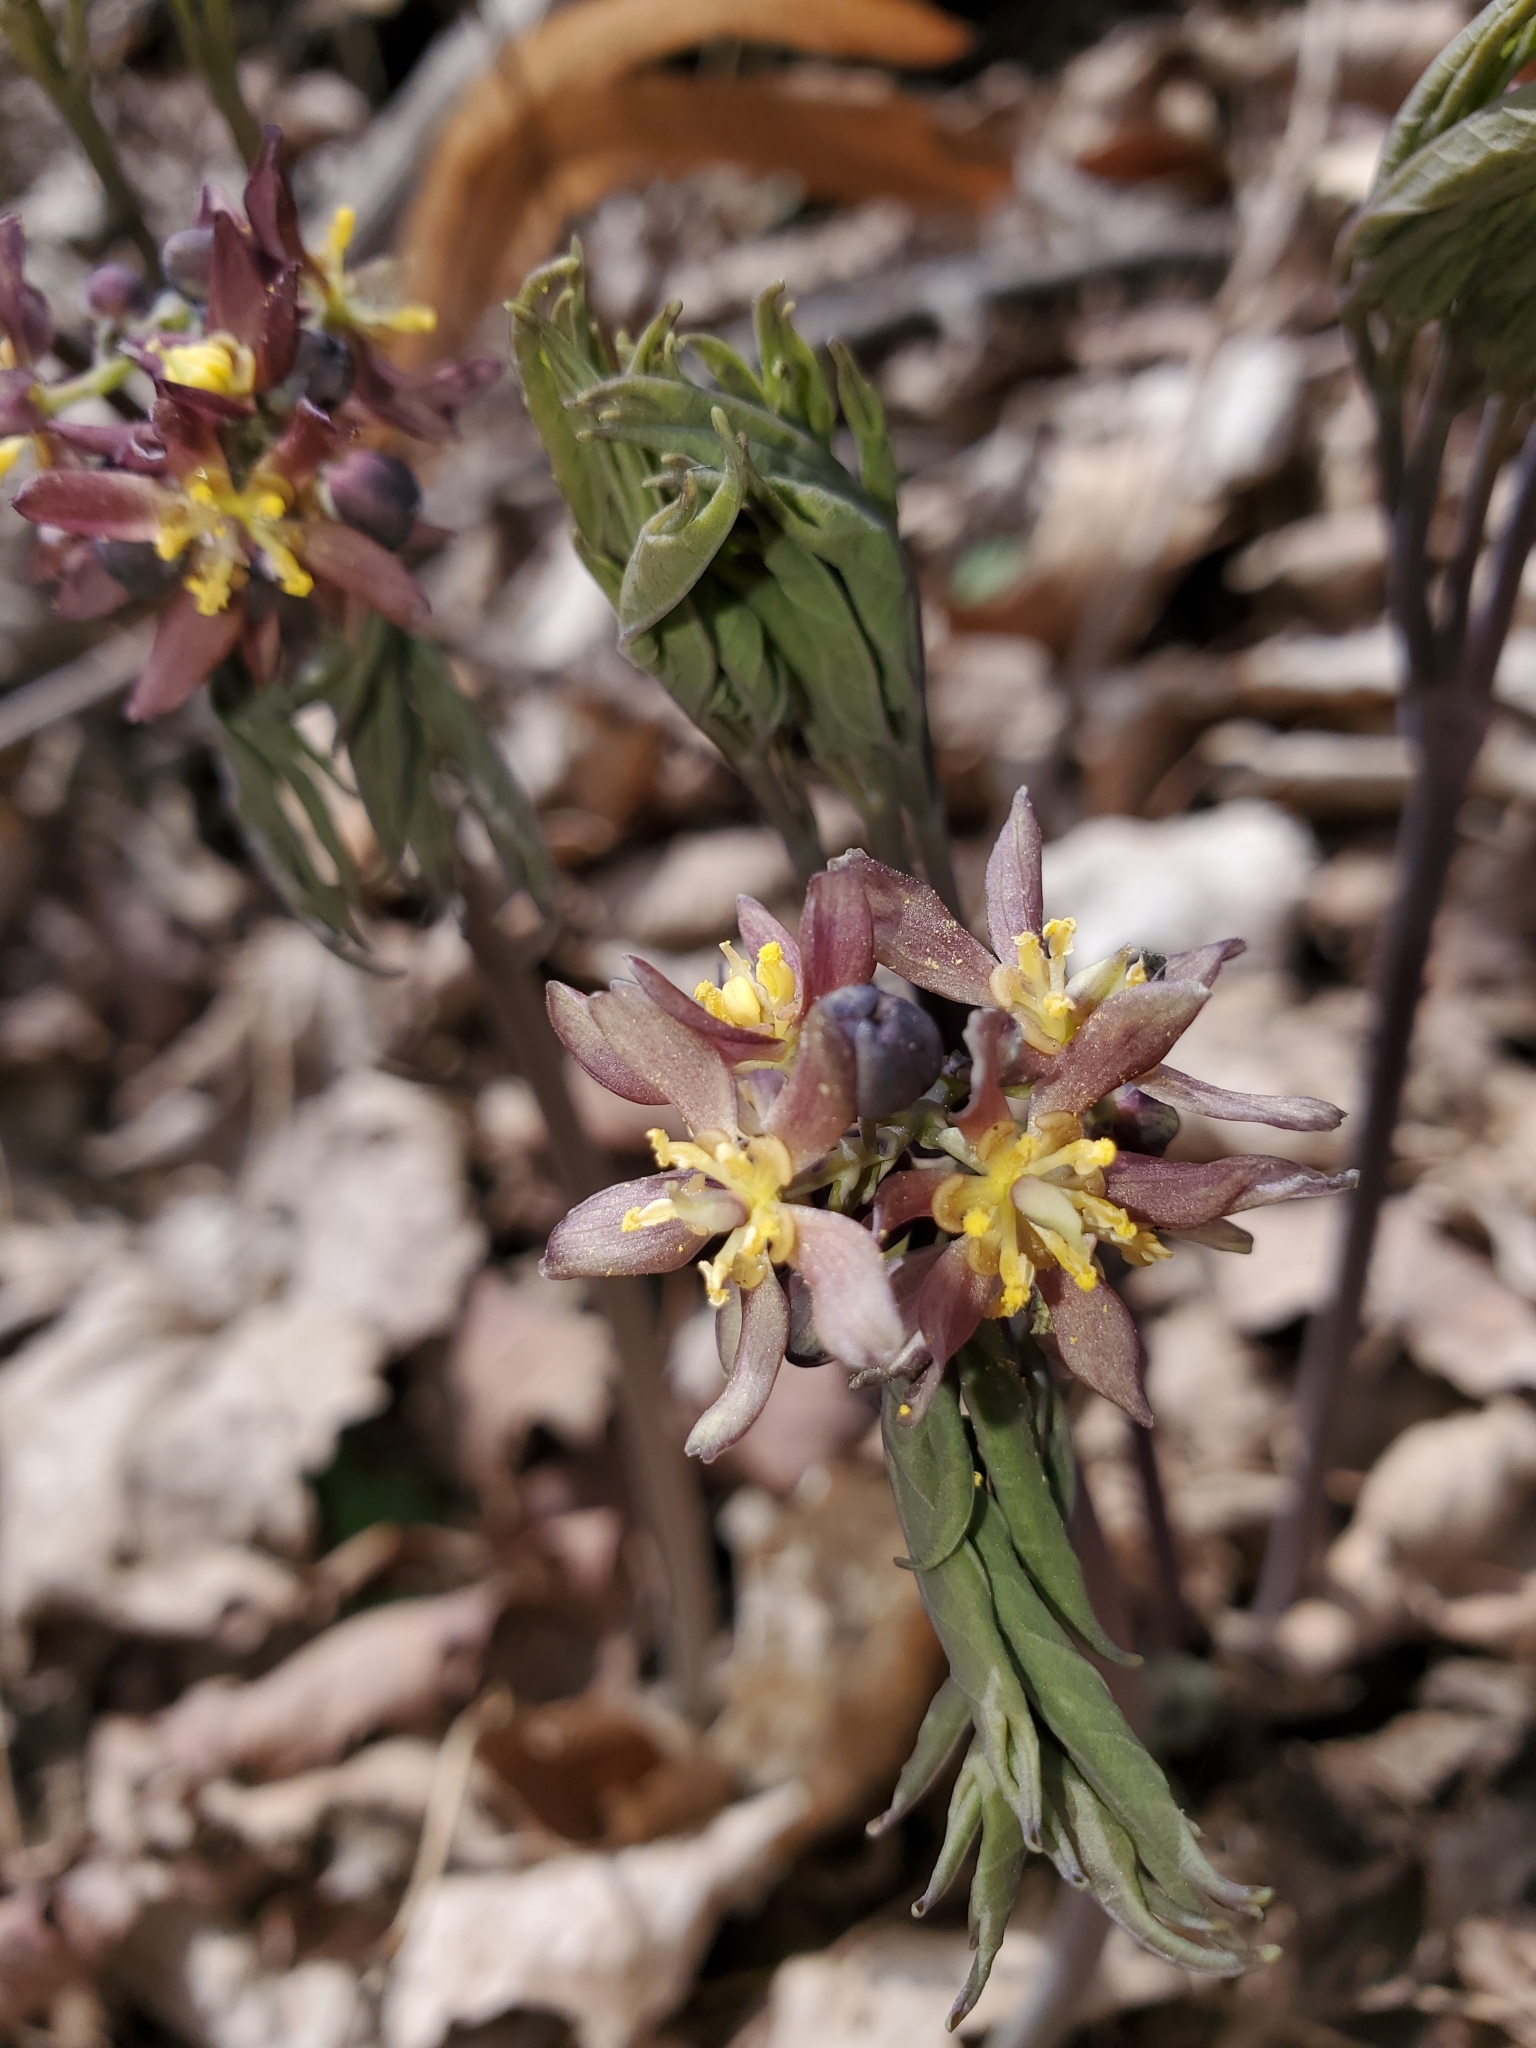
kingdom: Plantae
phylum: Tracheophyta
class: Magnoliopsida
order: Ranunculales
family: Berberidaceae
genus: Caulophyllum
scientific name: Caulophyllum giganteum
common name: Blue cohosh
